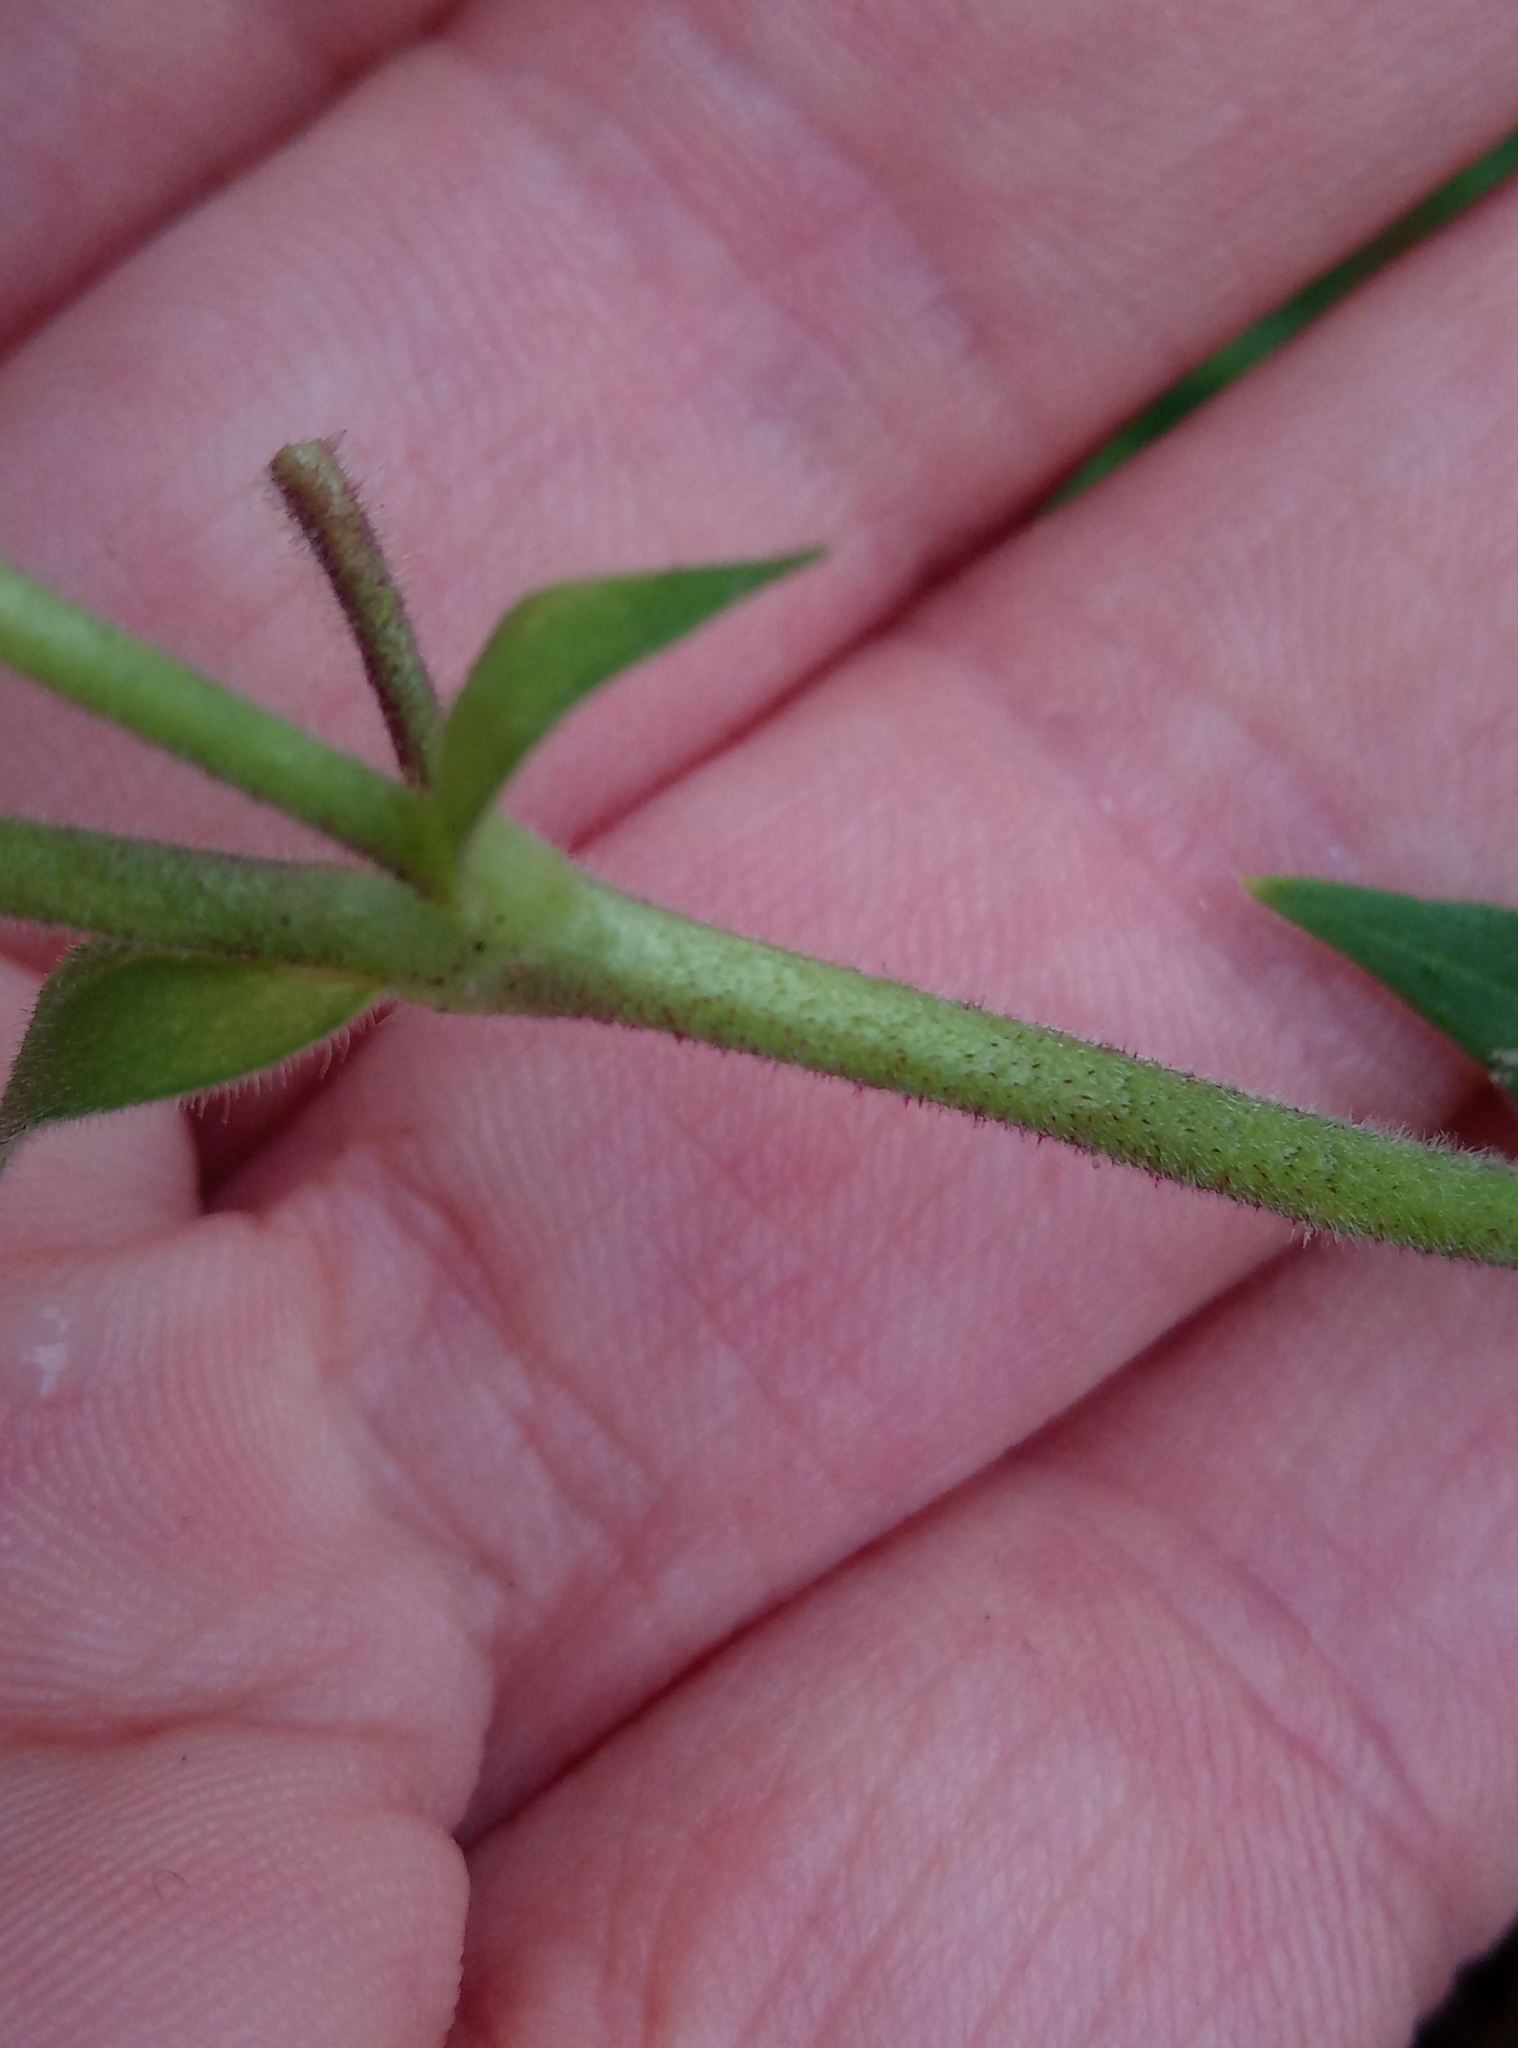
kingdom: Plantae
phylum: Tracheophyta
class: Magnoliopsida
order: Caryophyllales
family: Caryophyllaceae
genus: Silene
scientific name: Silene latifolia
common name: White campion
